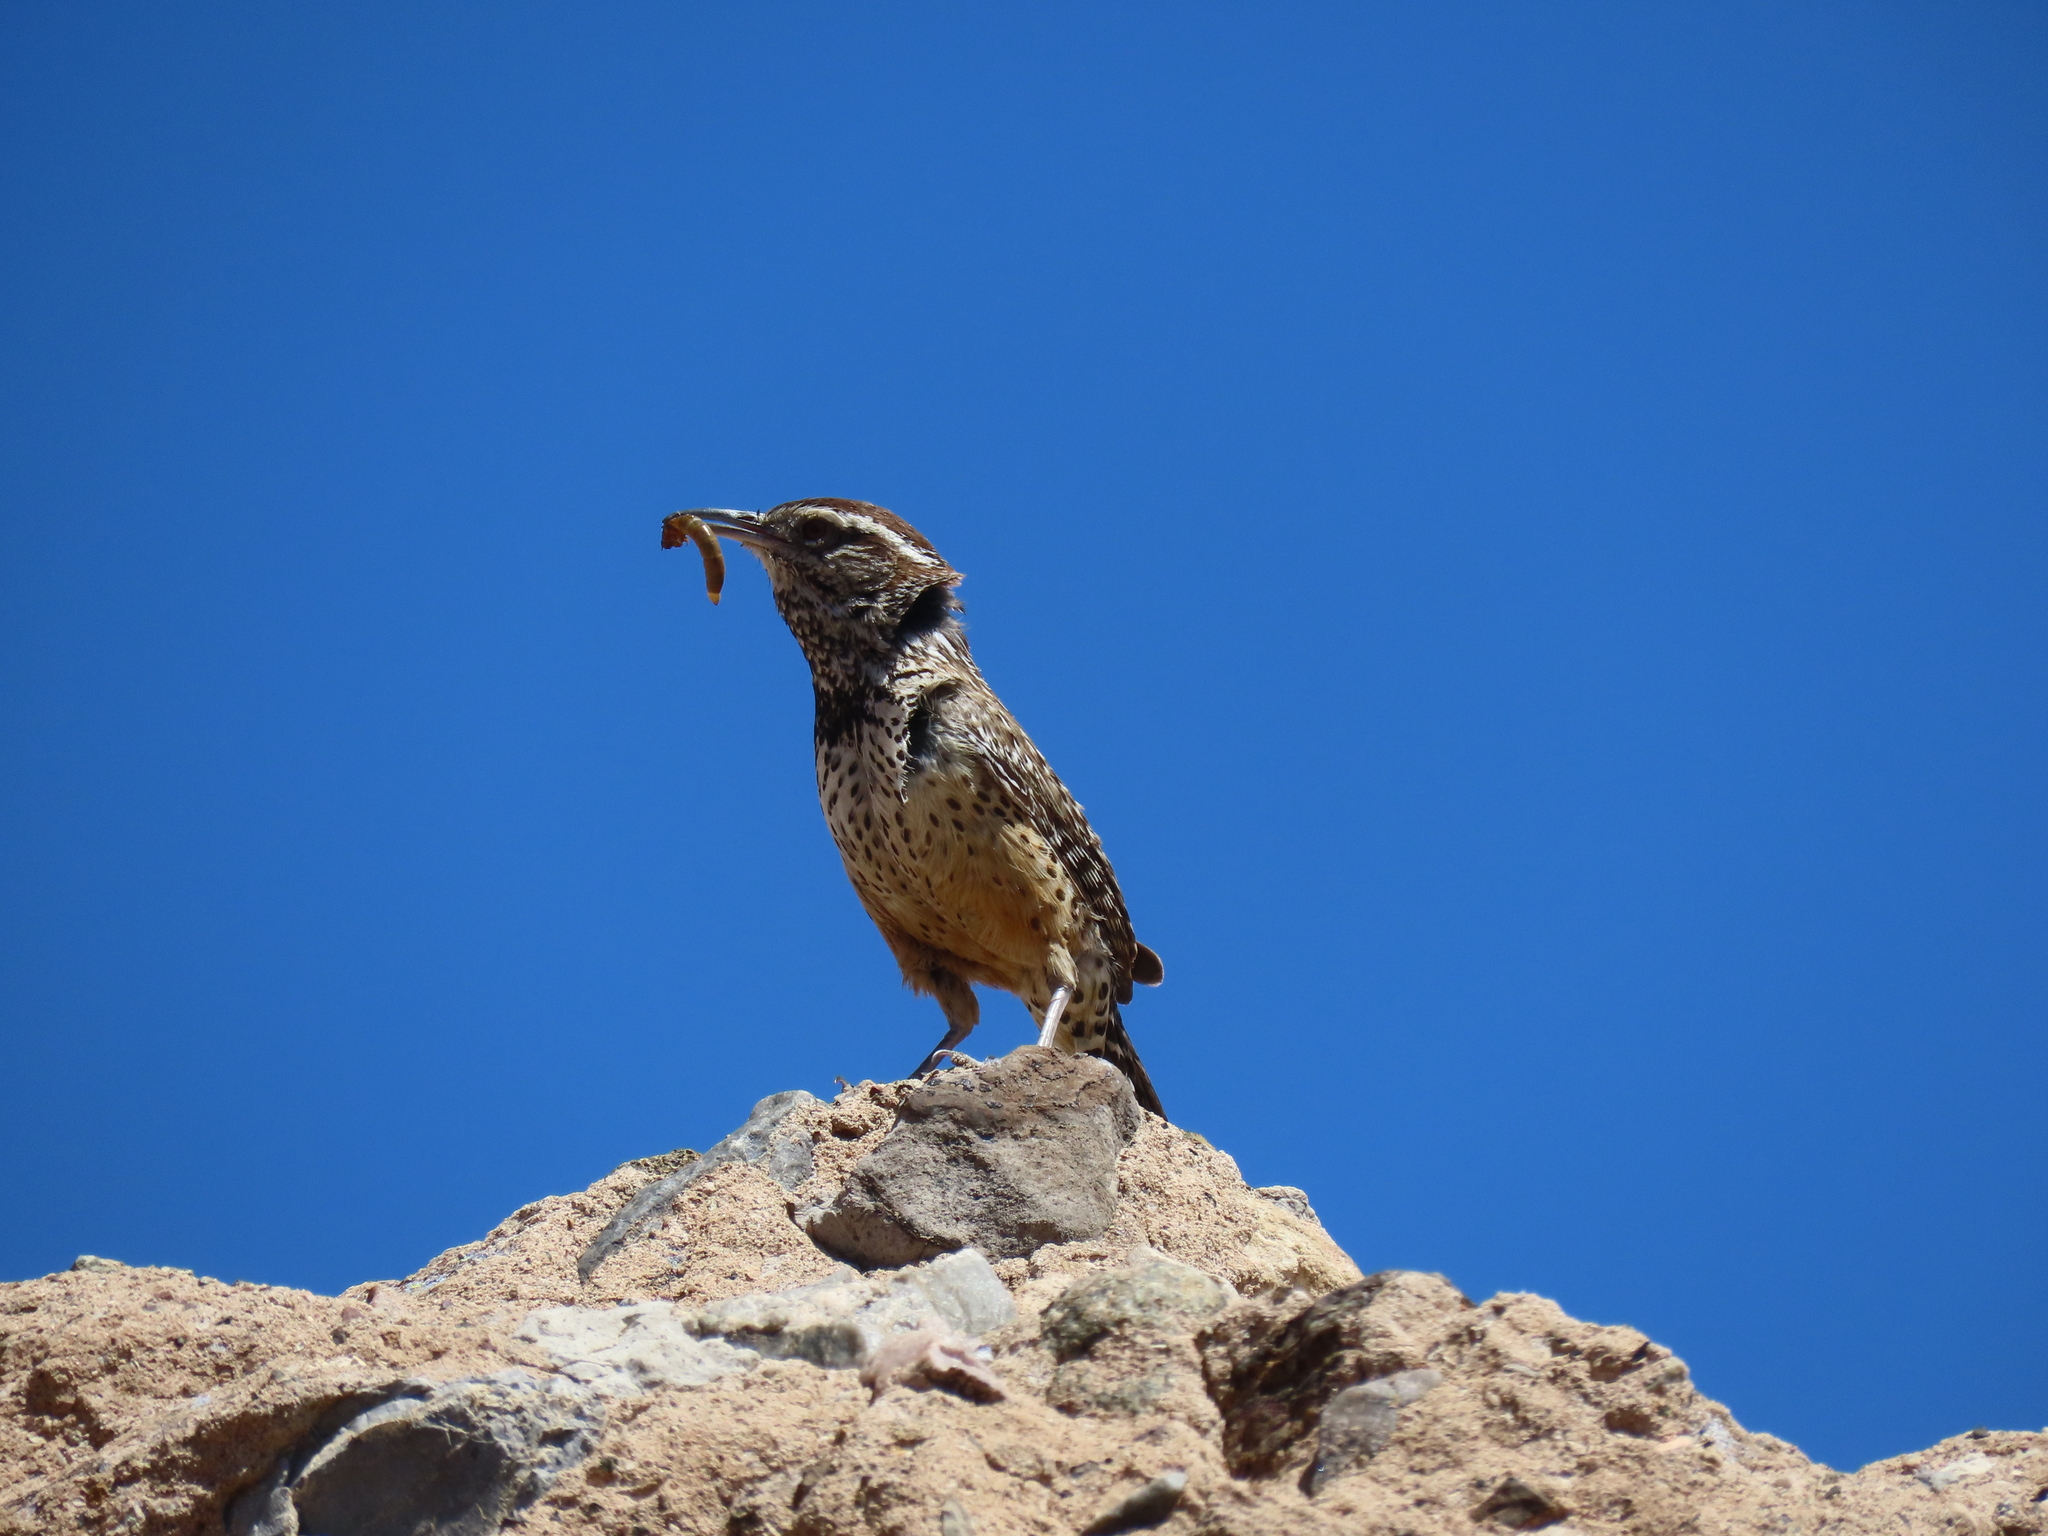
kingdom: Animalia
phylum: Chordata
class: Aves
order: Passeriformes
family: Troglodytidae
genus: Campylorhynchus
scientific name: Campylorhynchus brunneicapillus
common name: Cactus wren
